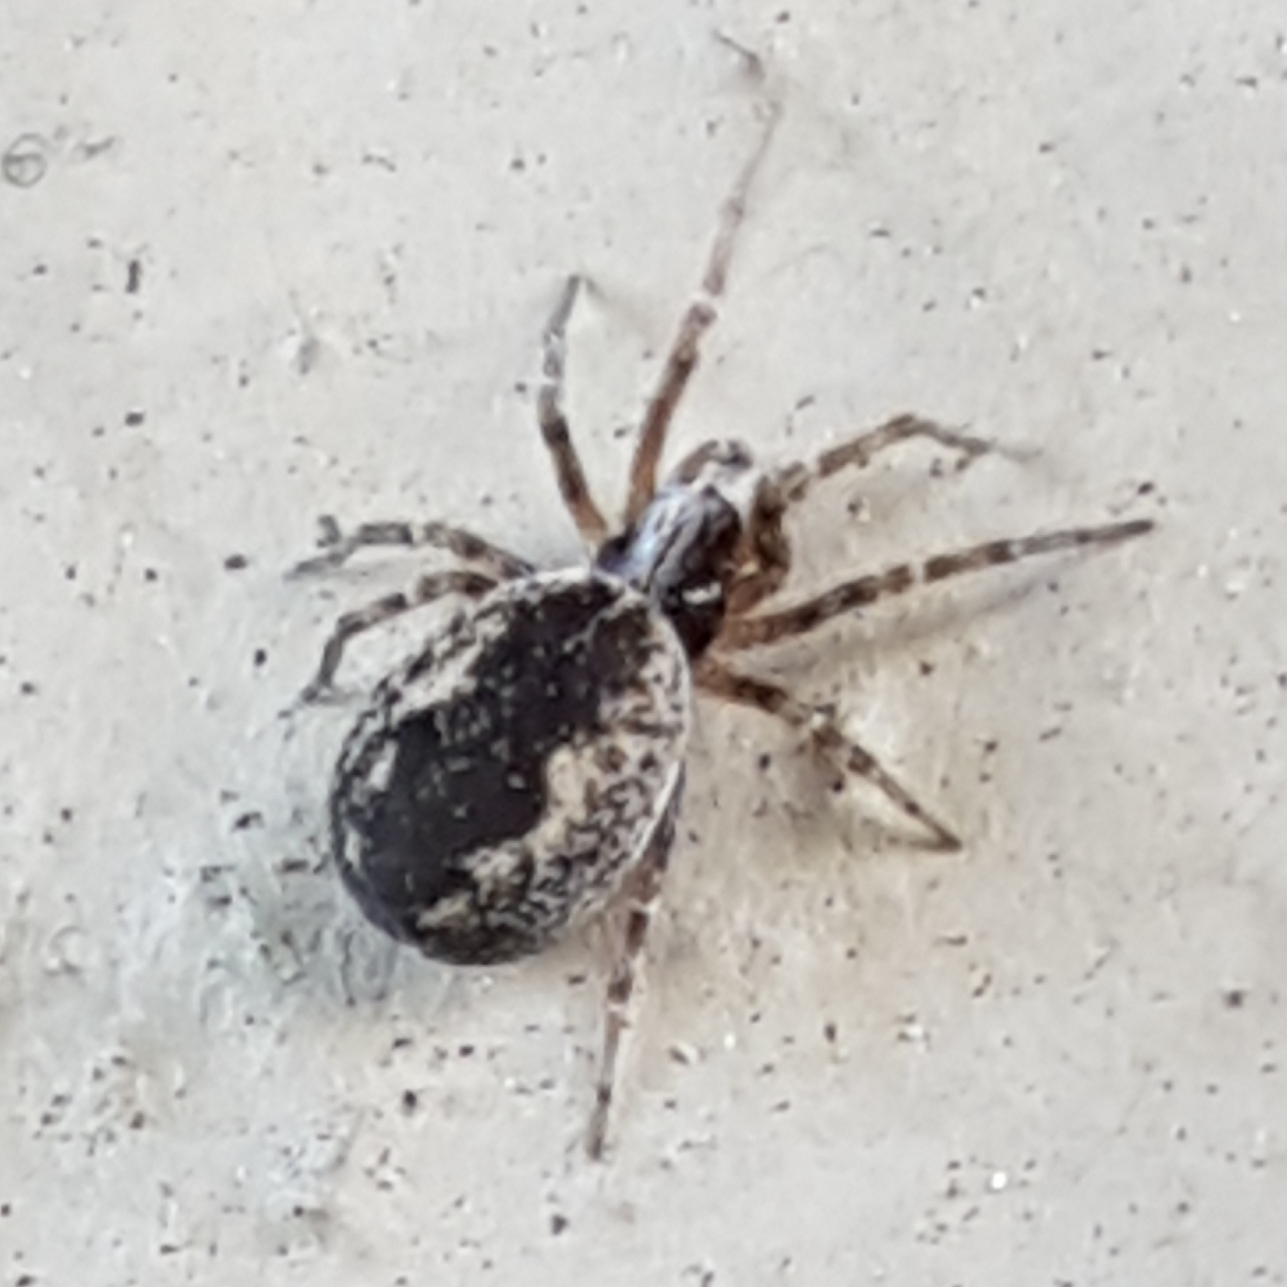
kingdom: Animalia
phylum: Arthropoda
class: Arachnida
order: Araneae
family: Dictynidae
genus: Brigittea
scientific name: Brigittea civica
